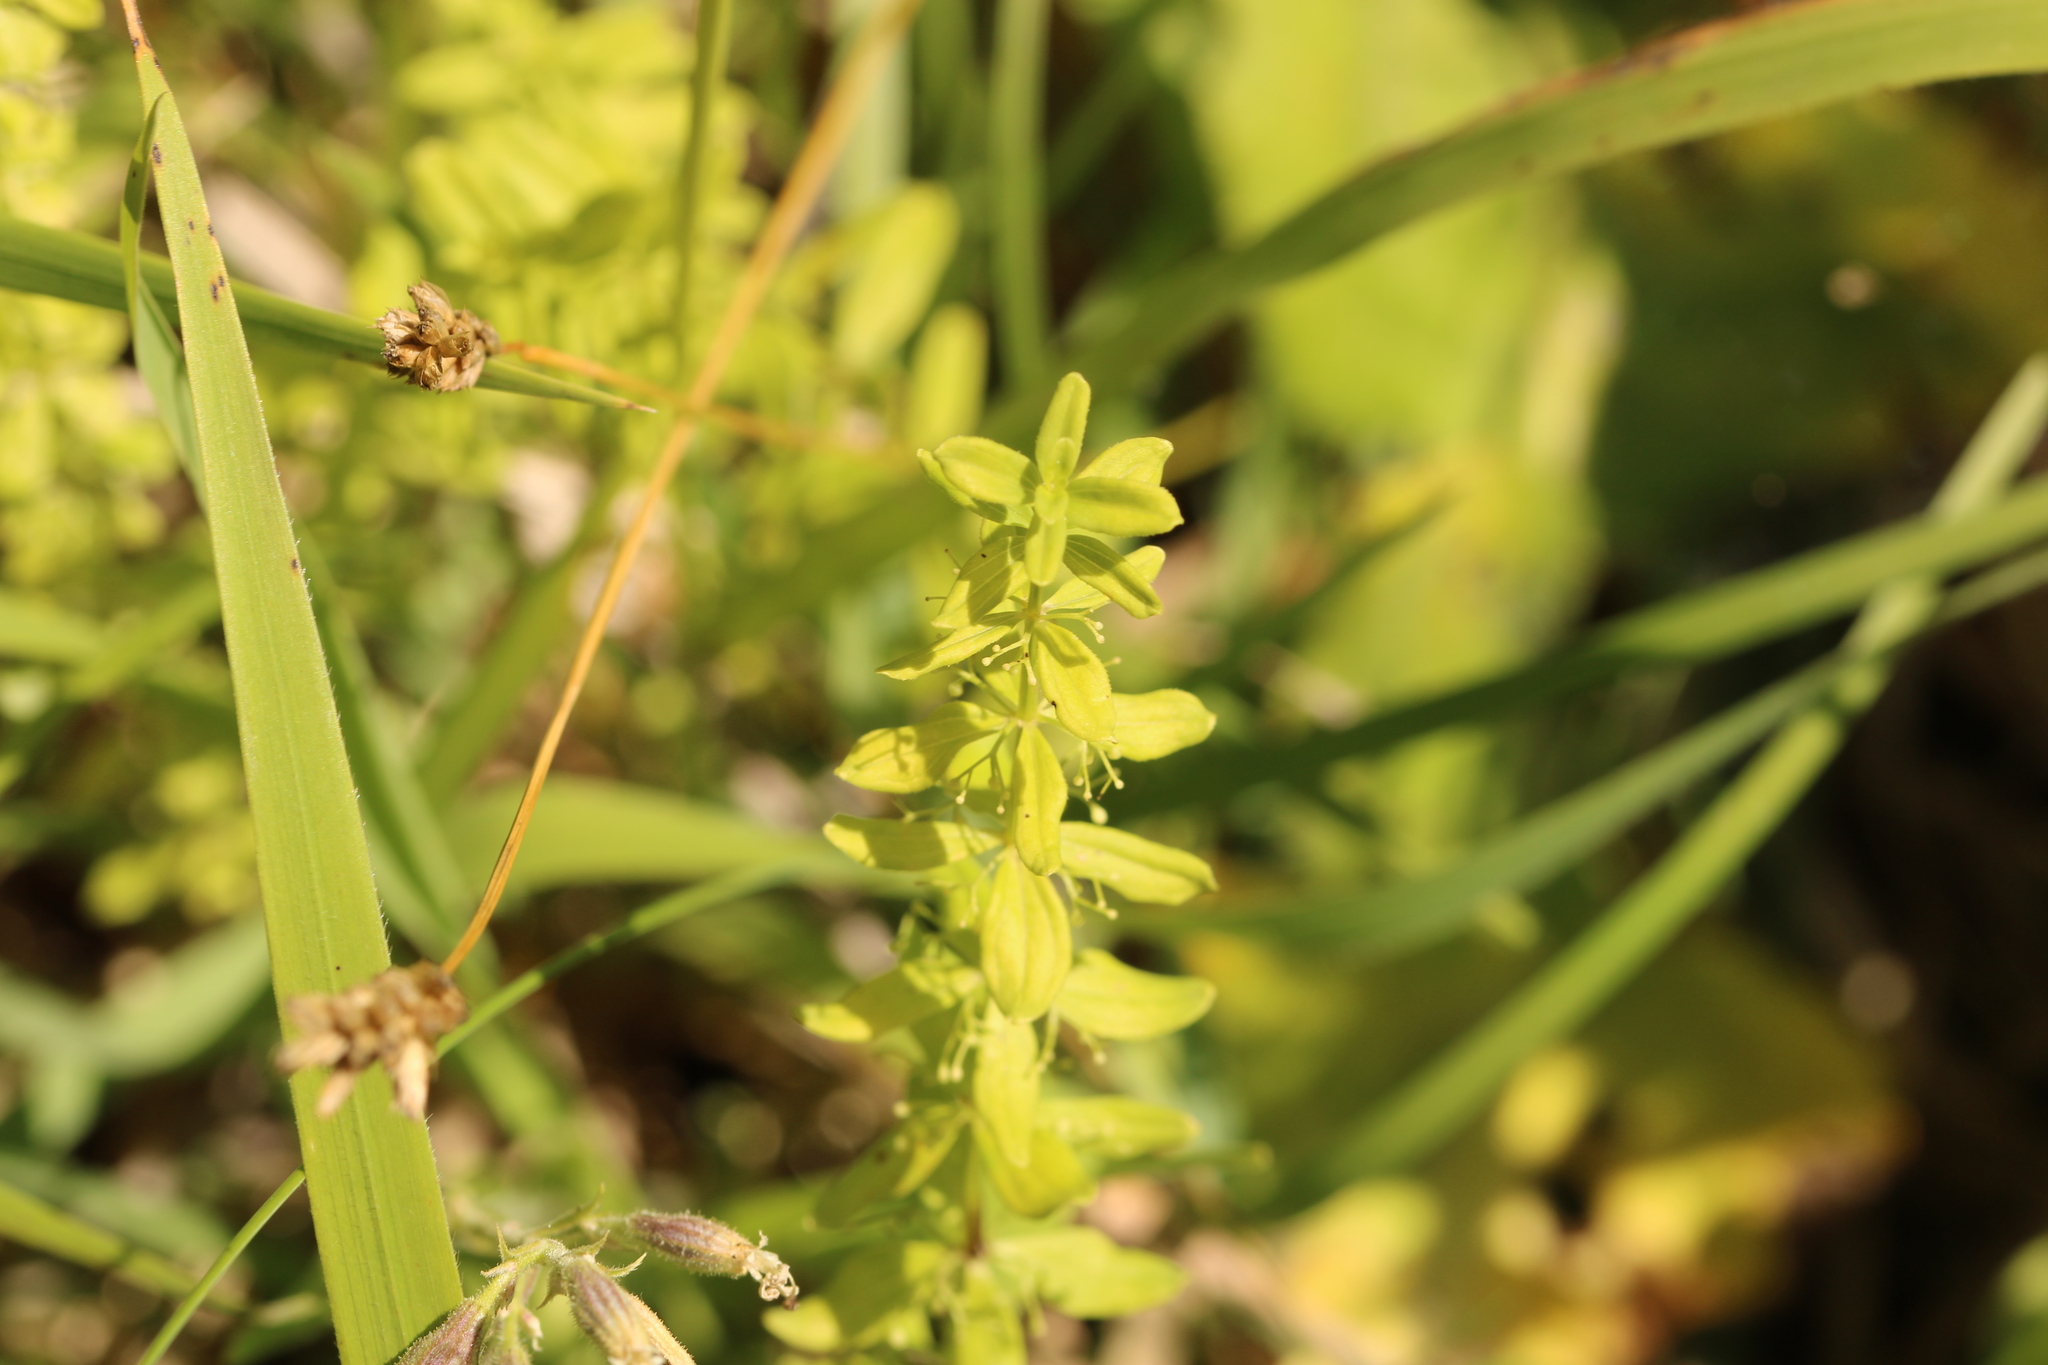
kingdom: Plantae
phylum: Tracheophyta
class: Magnoliopsida
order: Gentianales
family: Rubiaceae
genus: Cruciata
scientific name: Cruciata glabra
